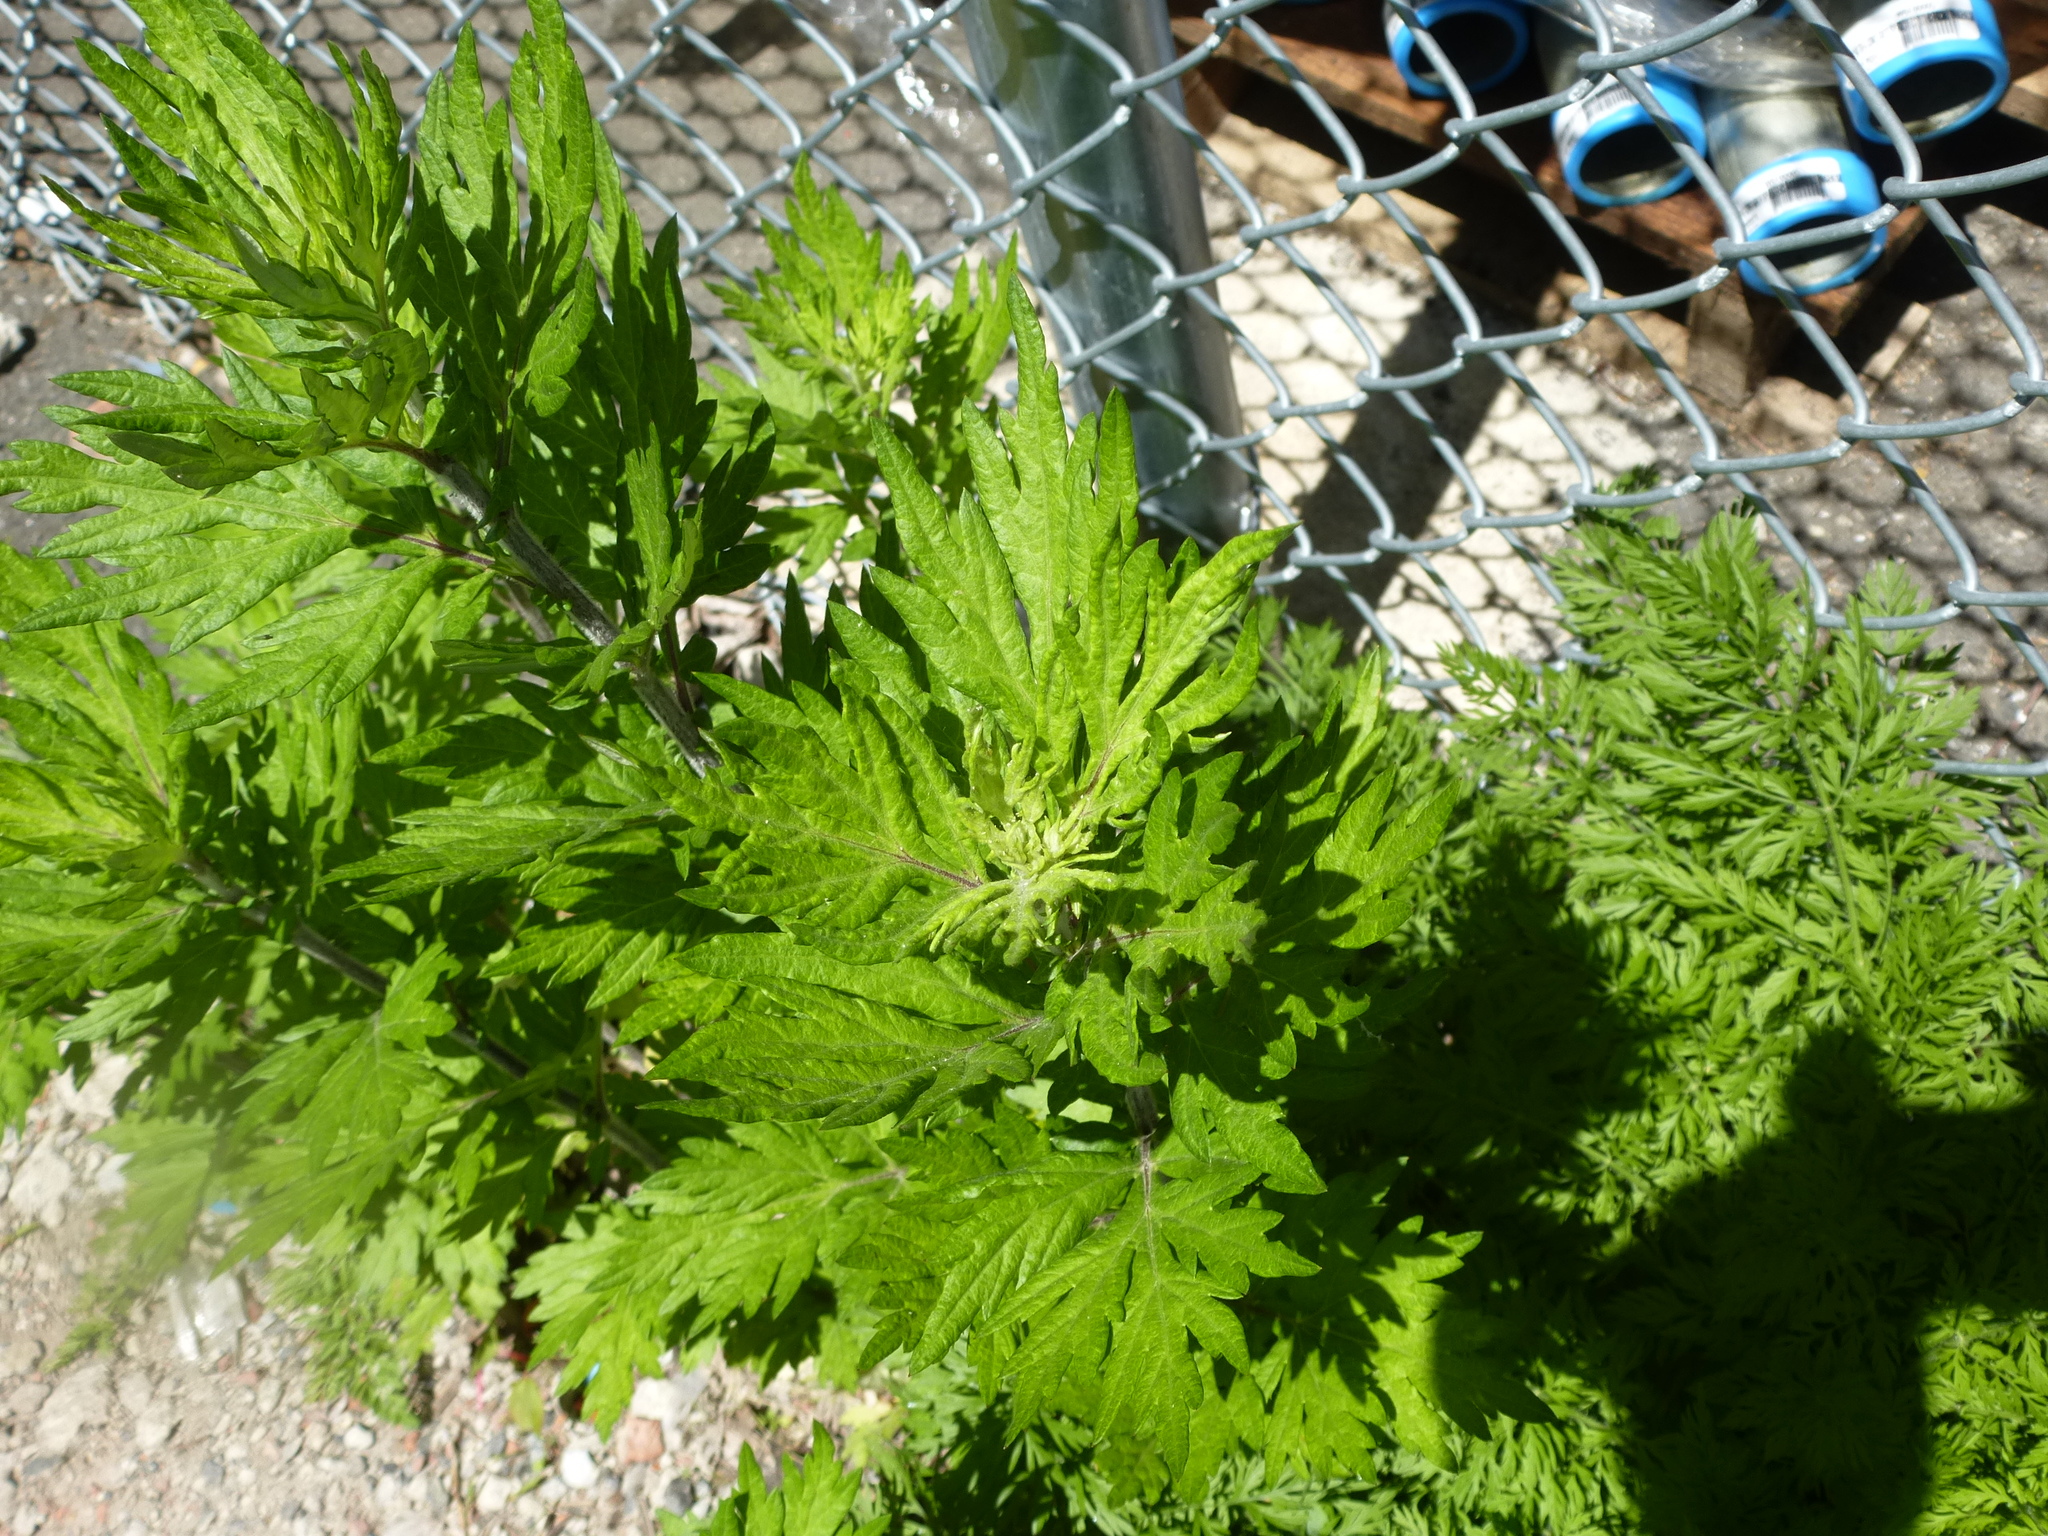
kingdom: Plantae
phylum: Tracheophyta
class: Magnoliopsida
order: Asterales
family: Asteraceae
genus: Artemisia
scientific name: Artemisia vulgaris
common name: Mugwort
